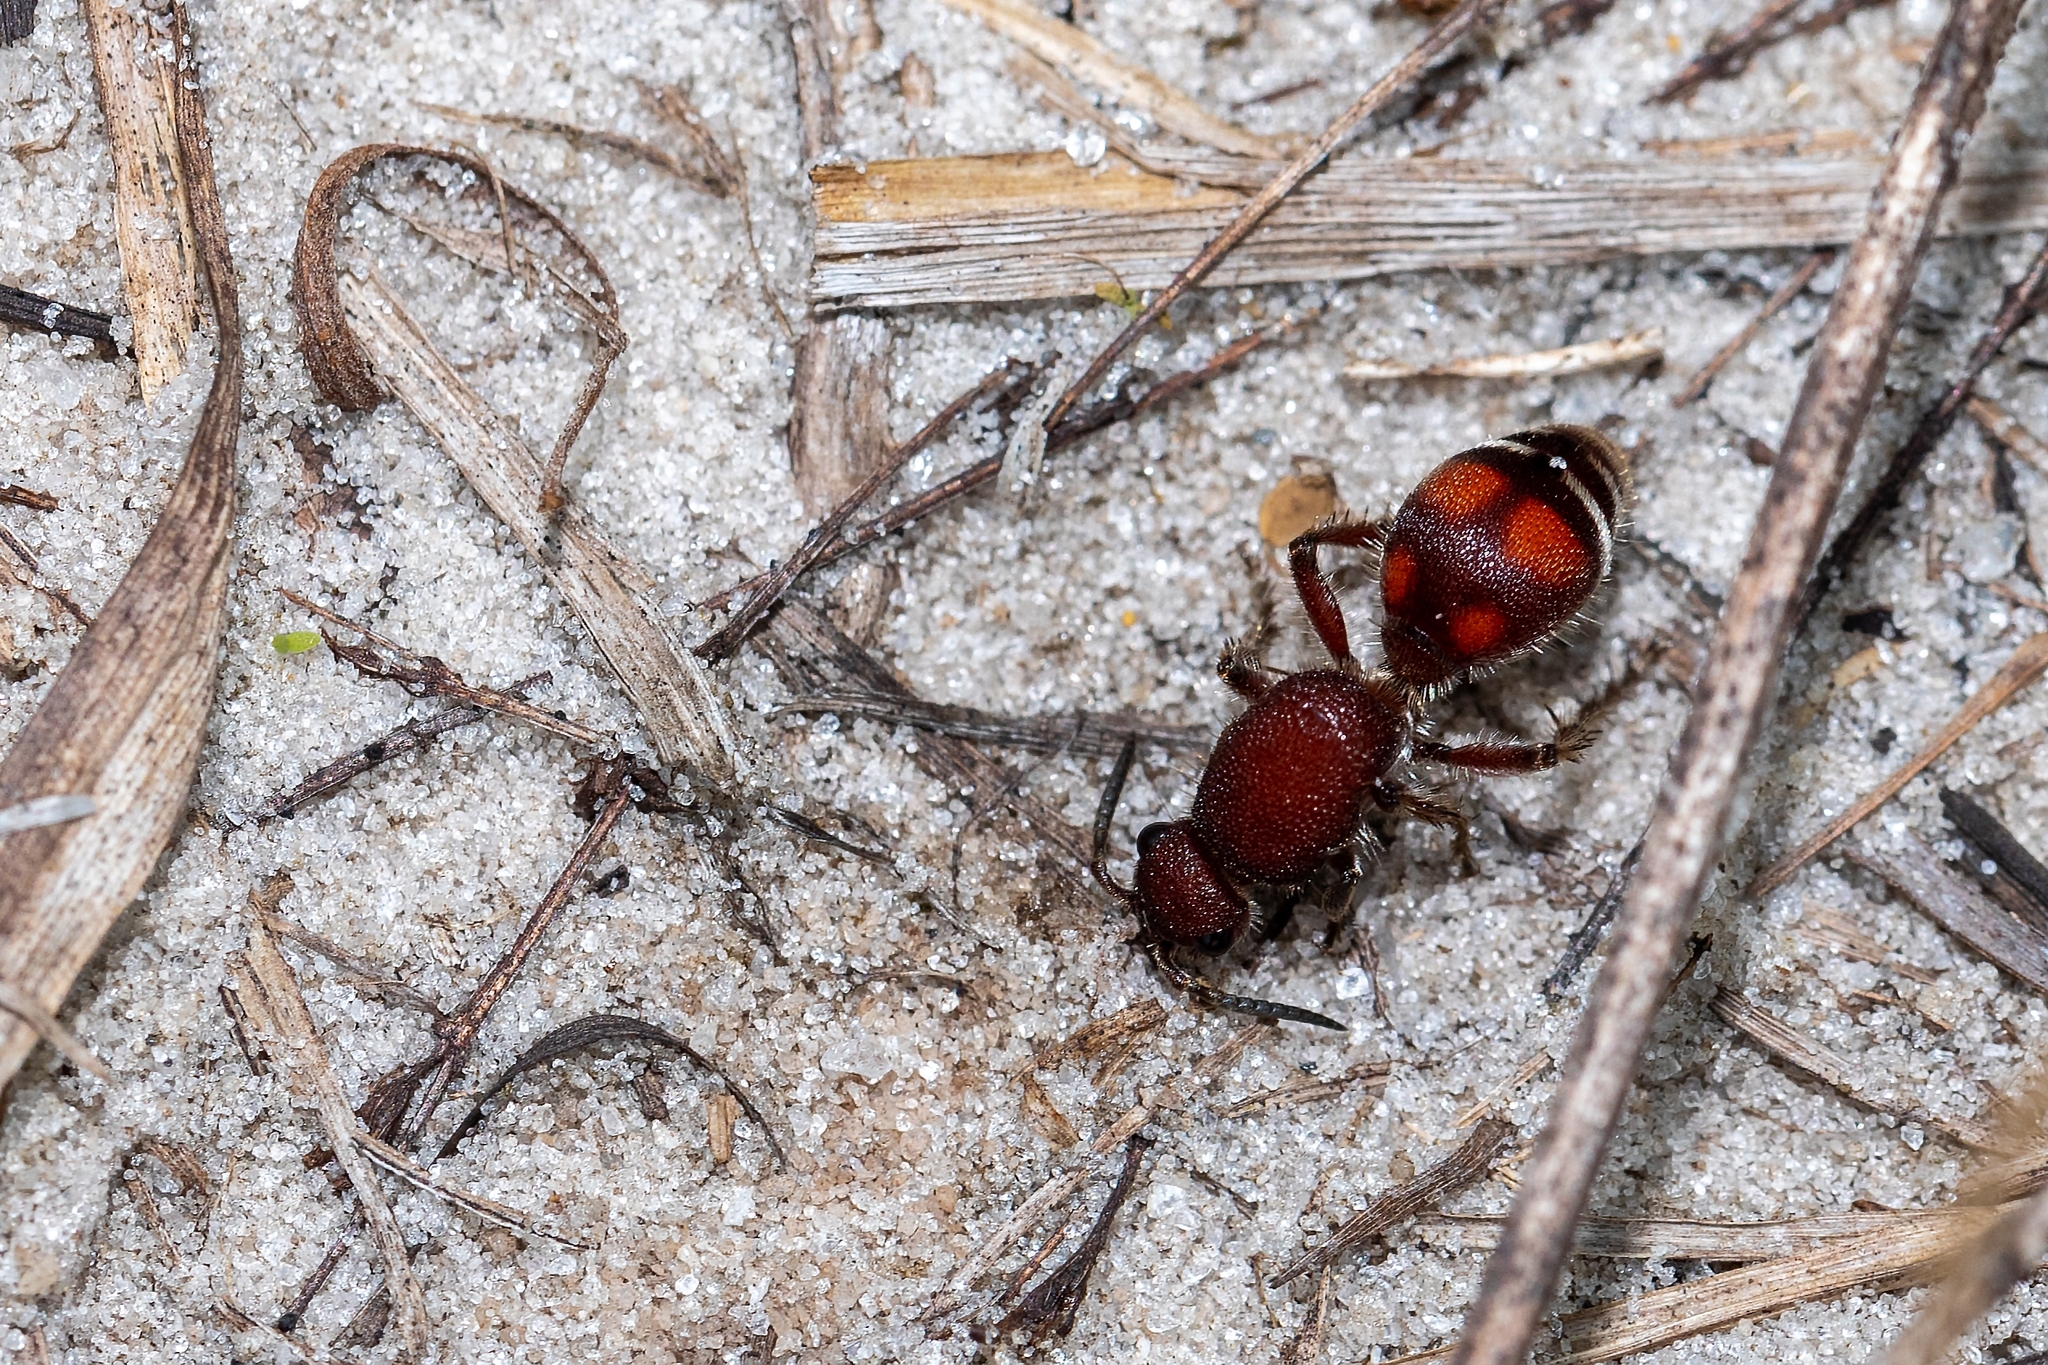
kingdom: Animalia
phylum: Arthropoda
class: Insecta
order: Hymenoptera
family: Mutillidae
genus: Dasymutilla
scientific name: Dasymutilla
